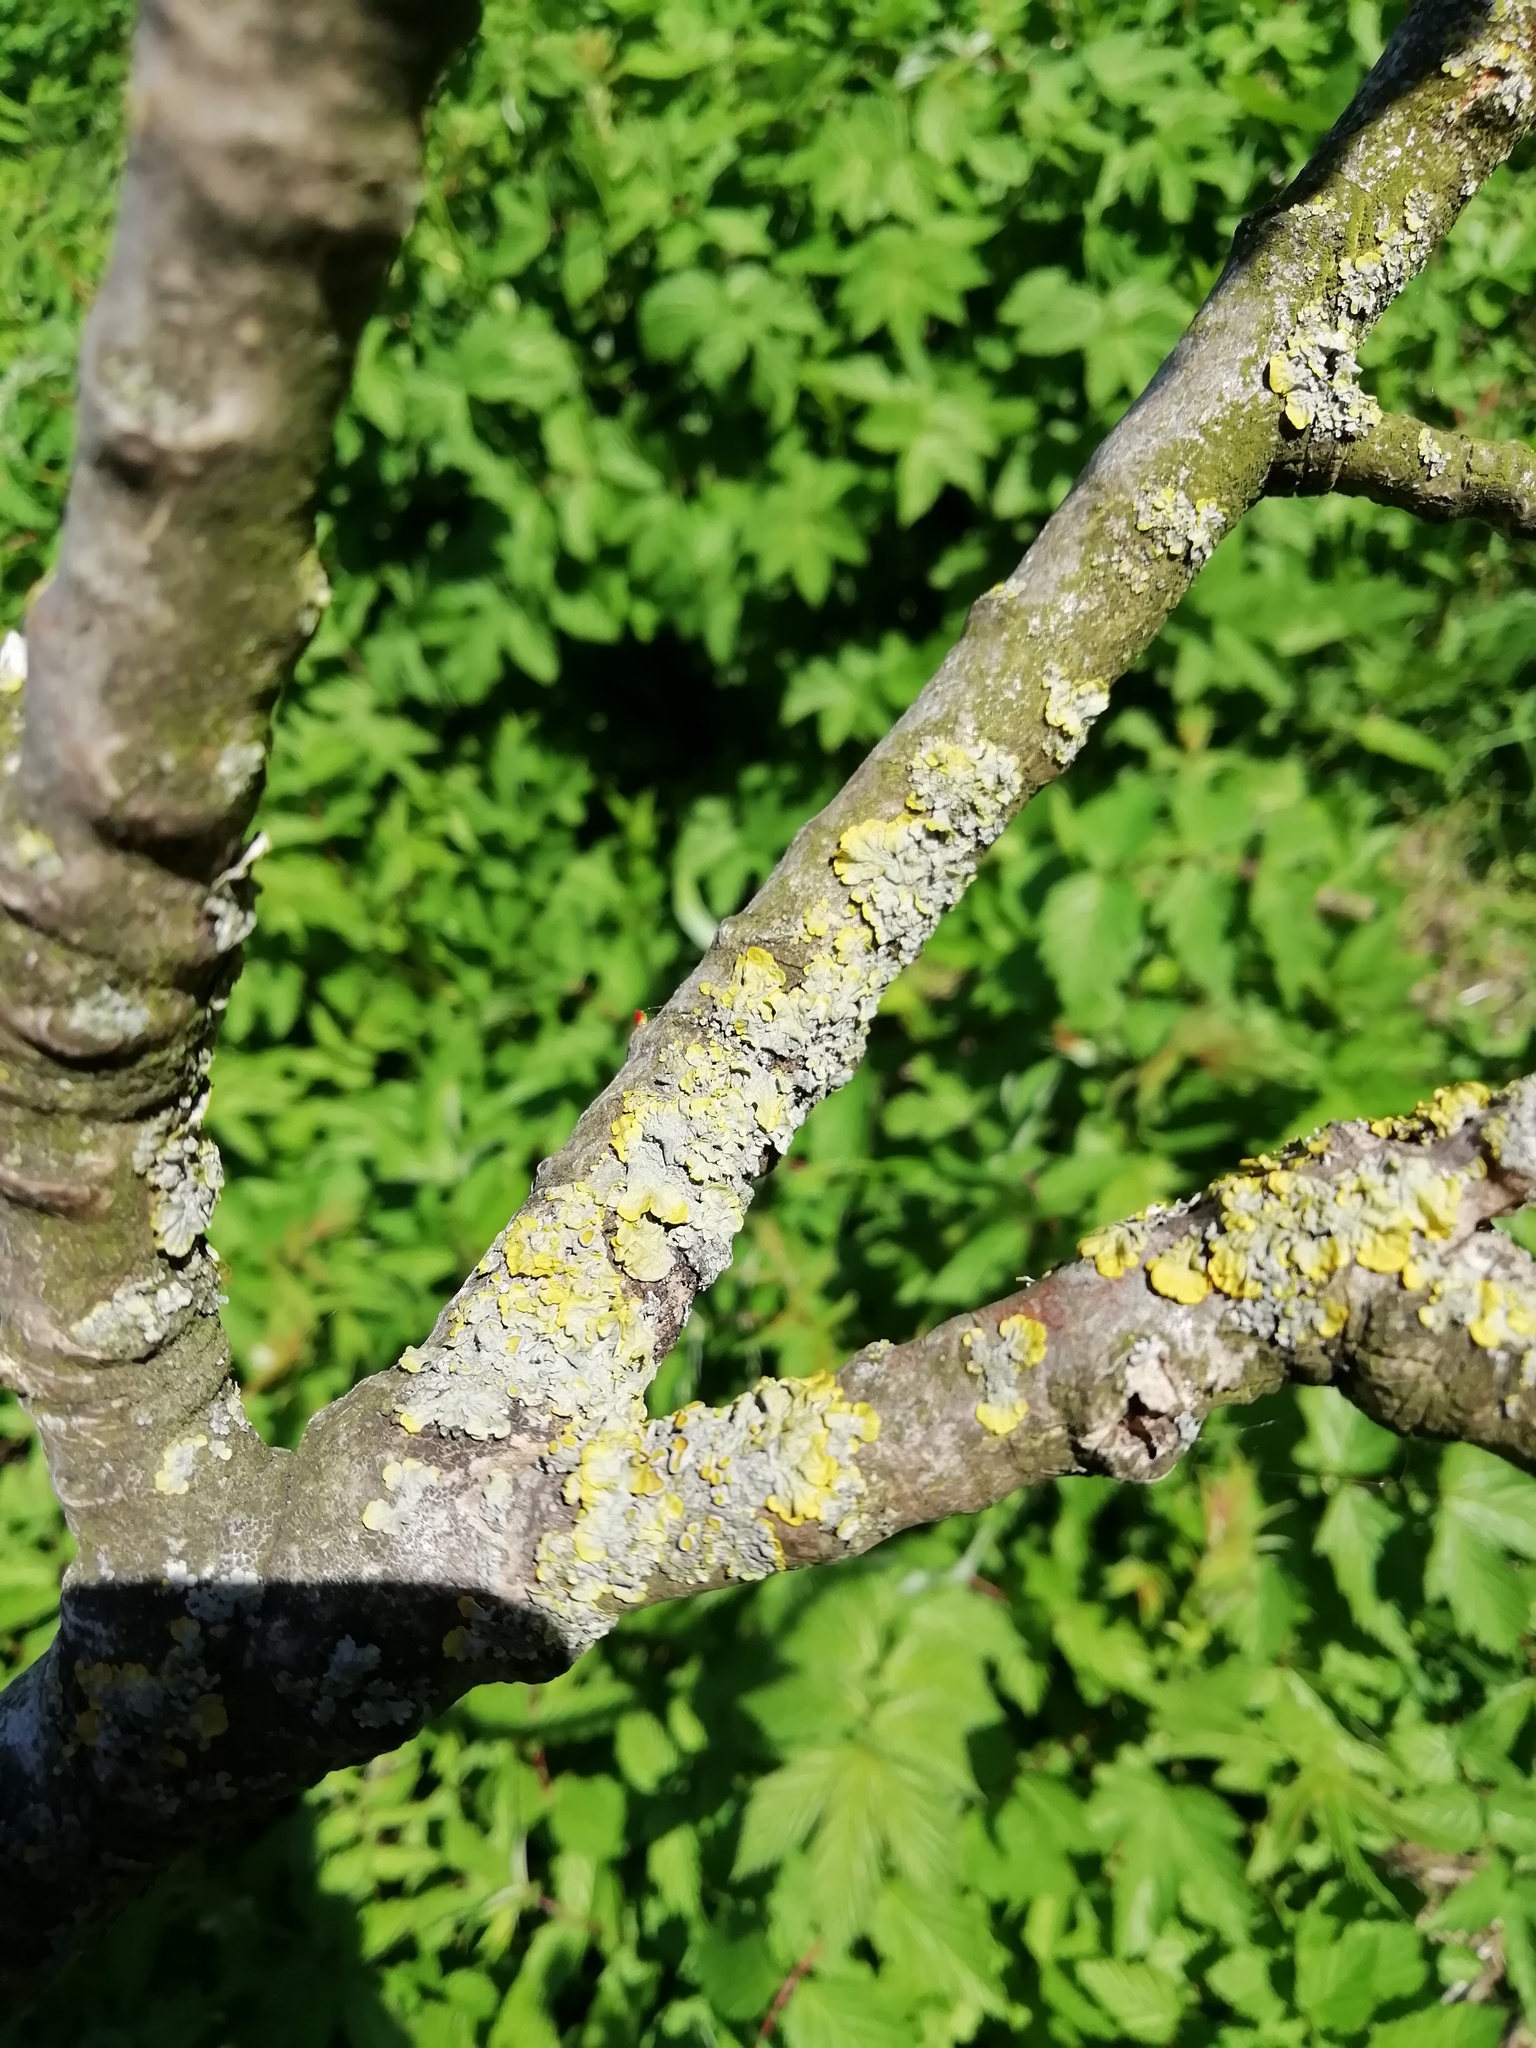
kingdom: Fungi
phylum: Ascomycota
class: Lecanoromycetes
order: Teloschistales
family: Teloschistaceae
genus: Xanthoria
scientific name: Xanthoria parietina
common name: Common orange lichen
